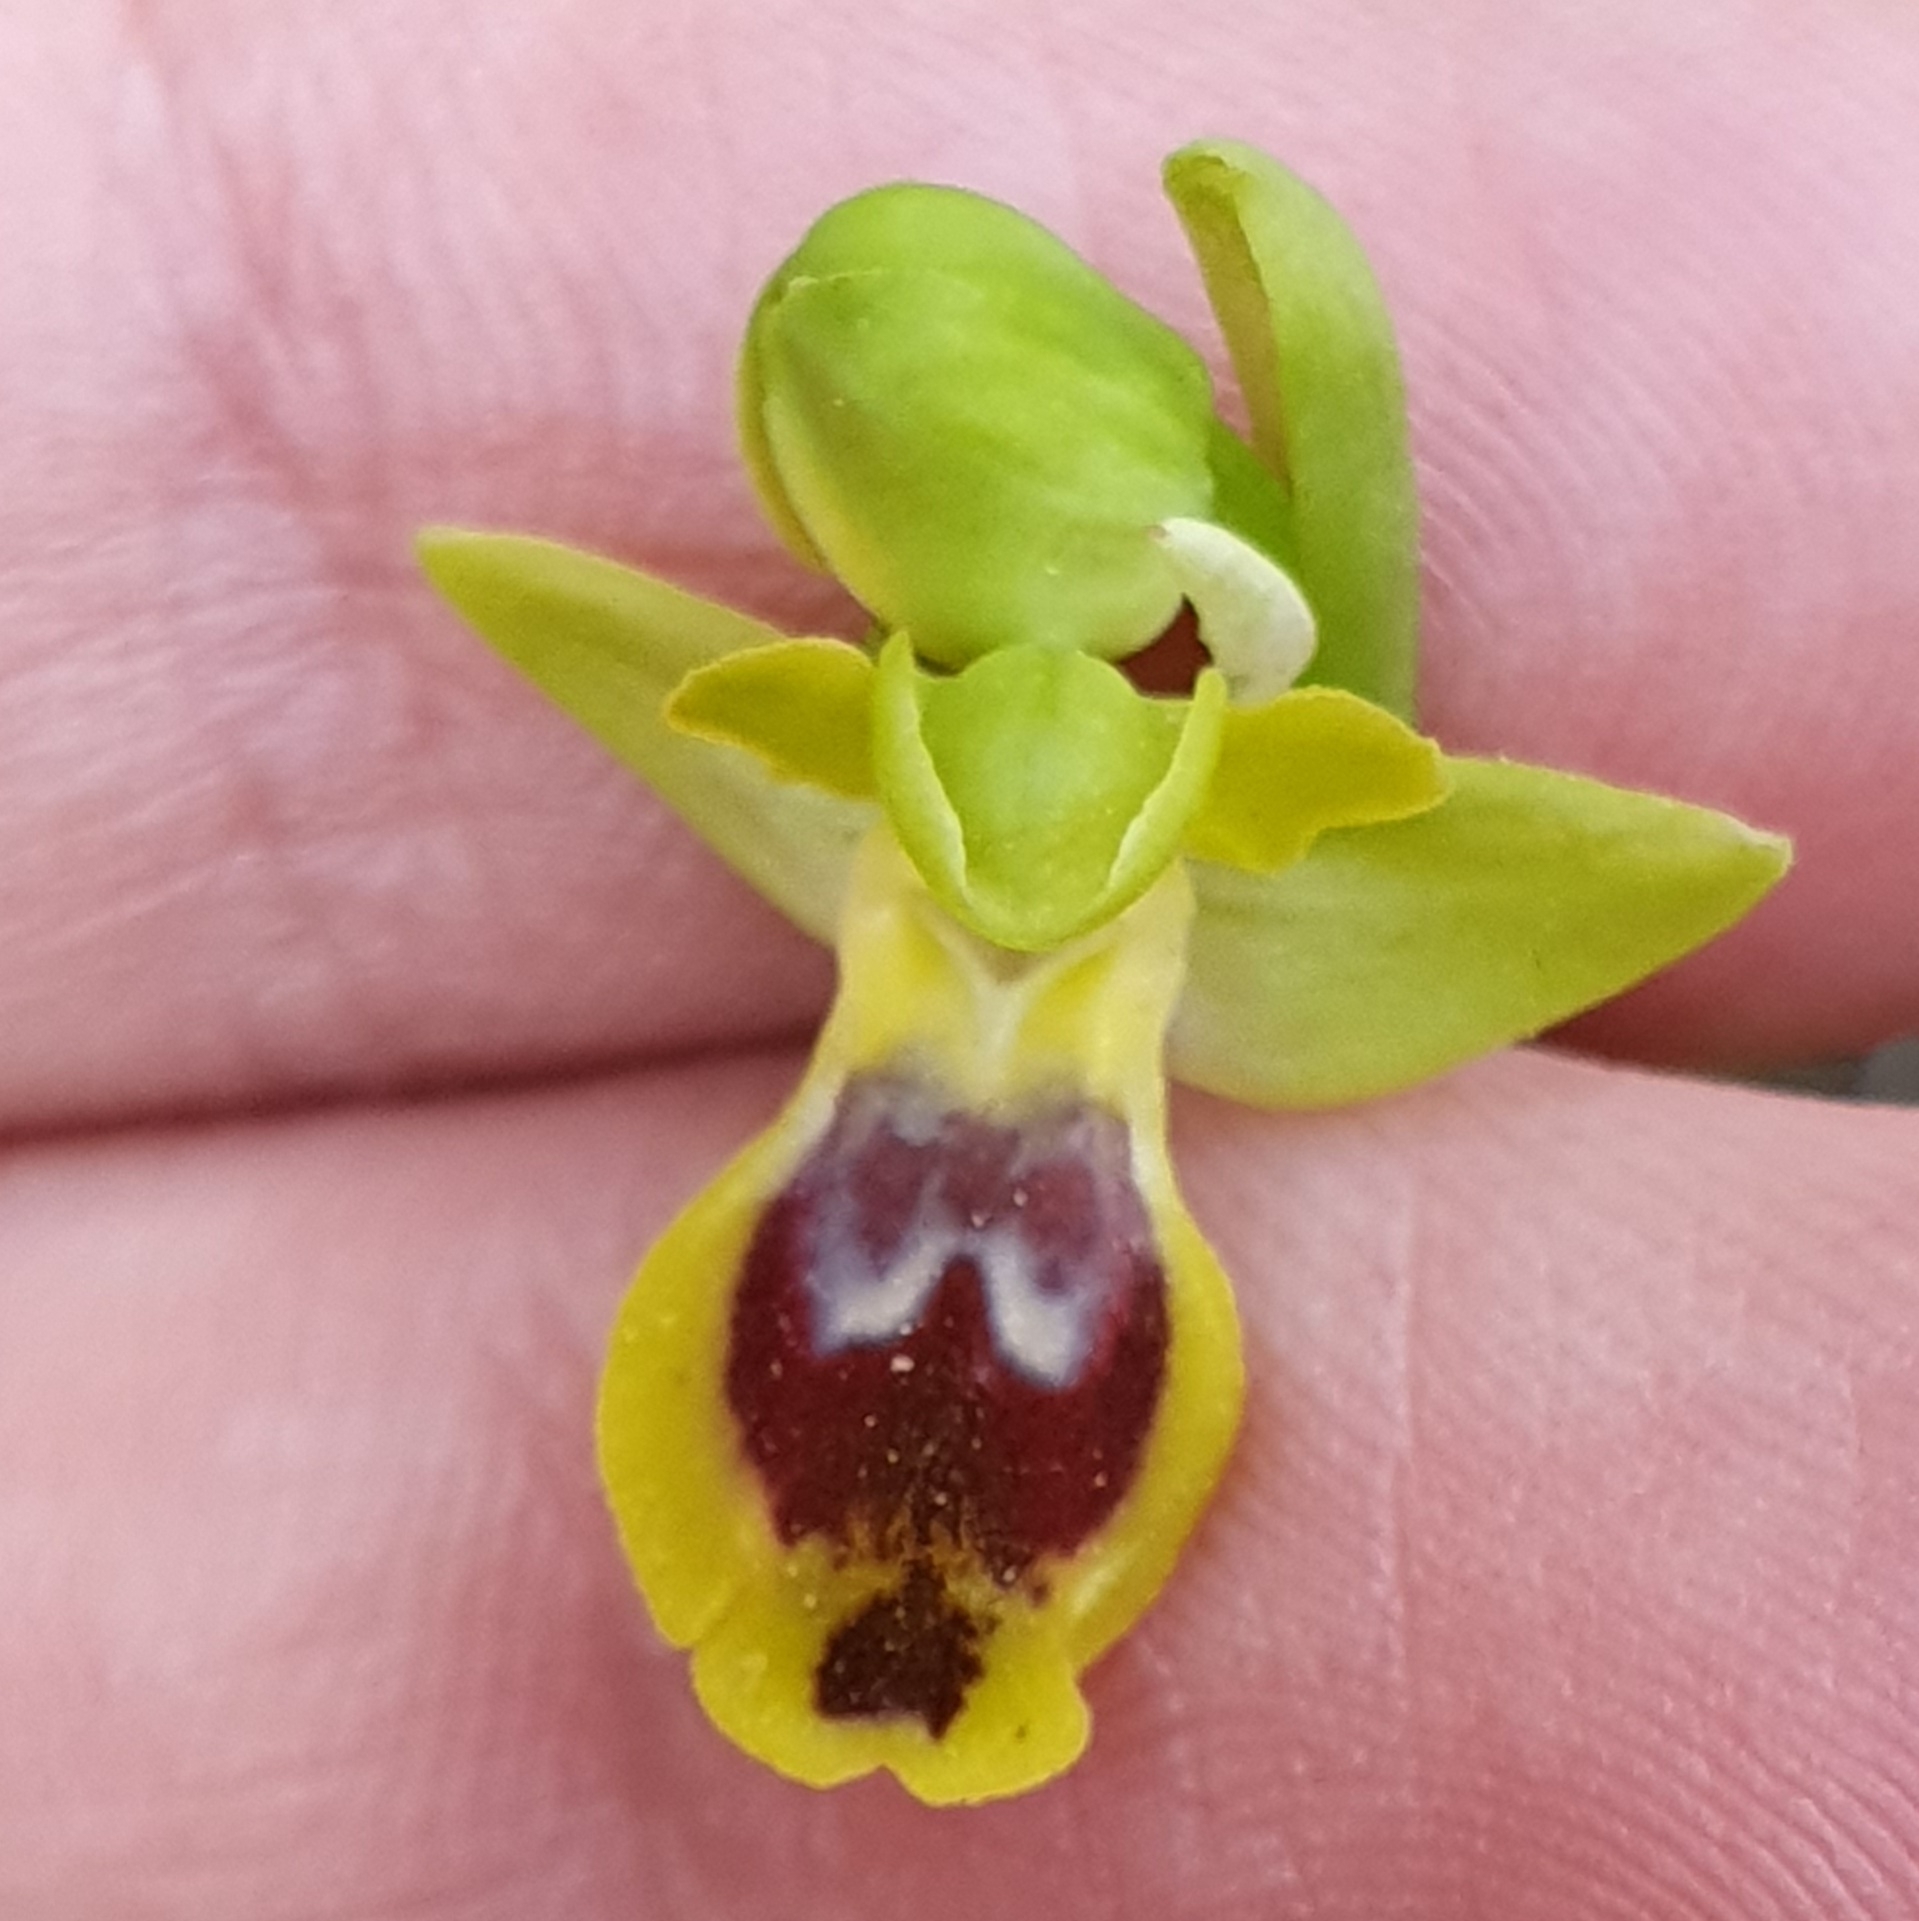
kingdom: Plantae
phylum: Tracheophyta
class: Liliopsida
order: Asparagales
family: Orchidaceae
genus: Ophrys
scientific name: Ophrys battandieri
